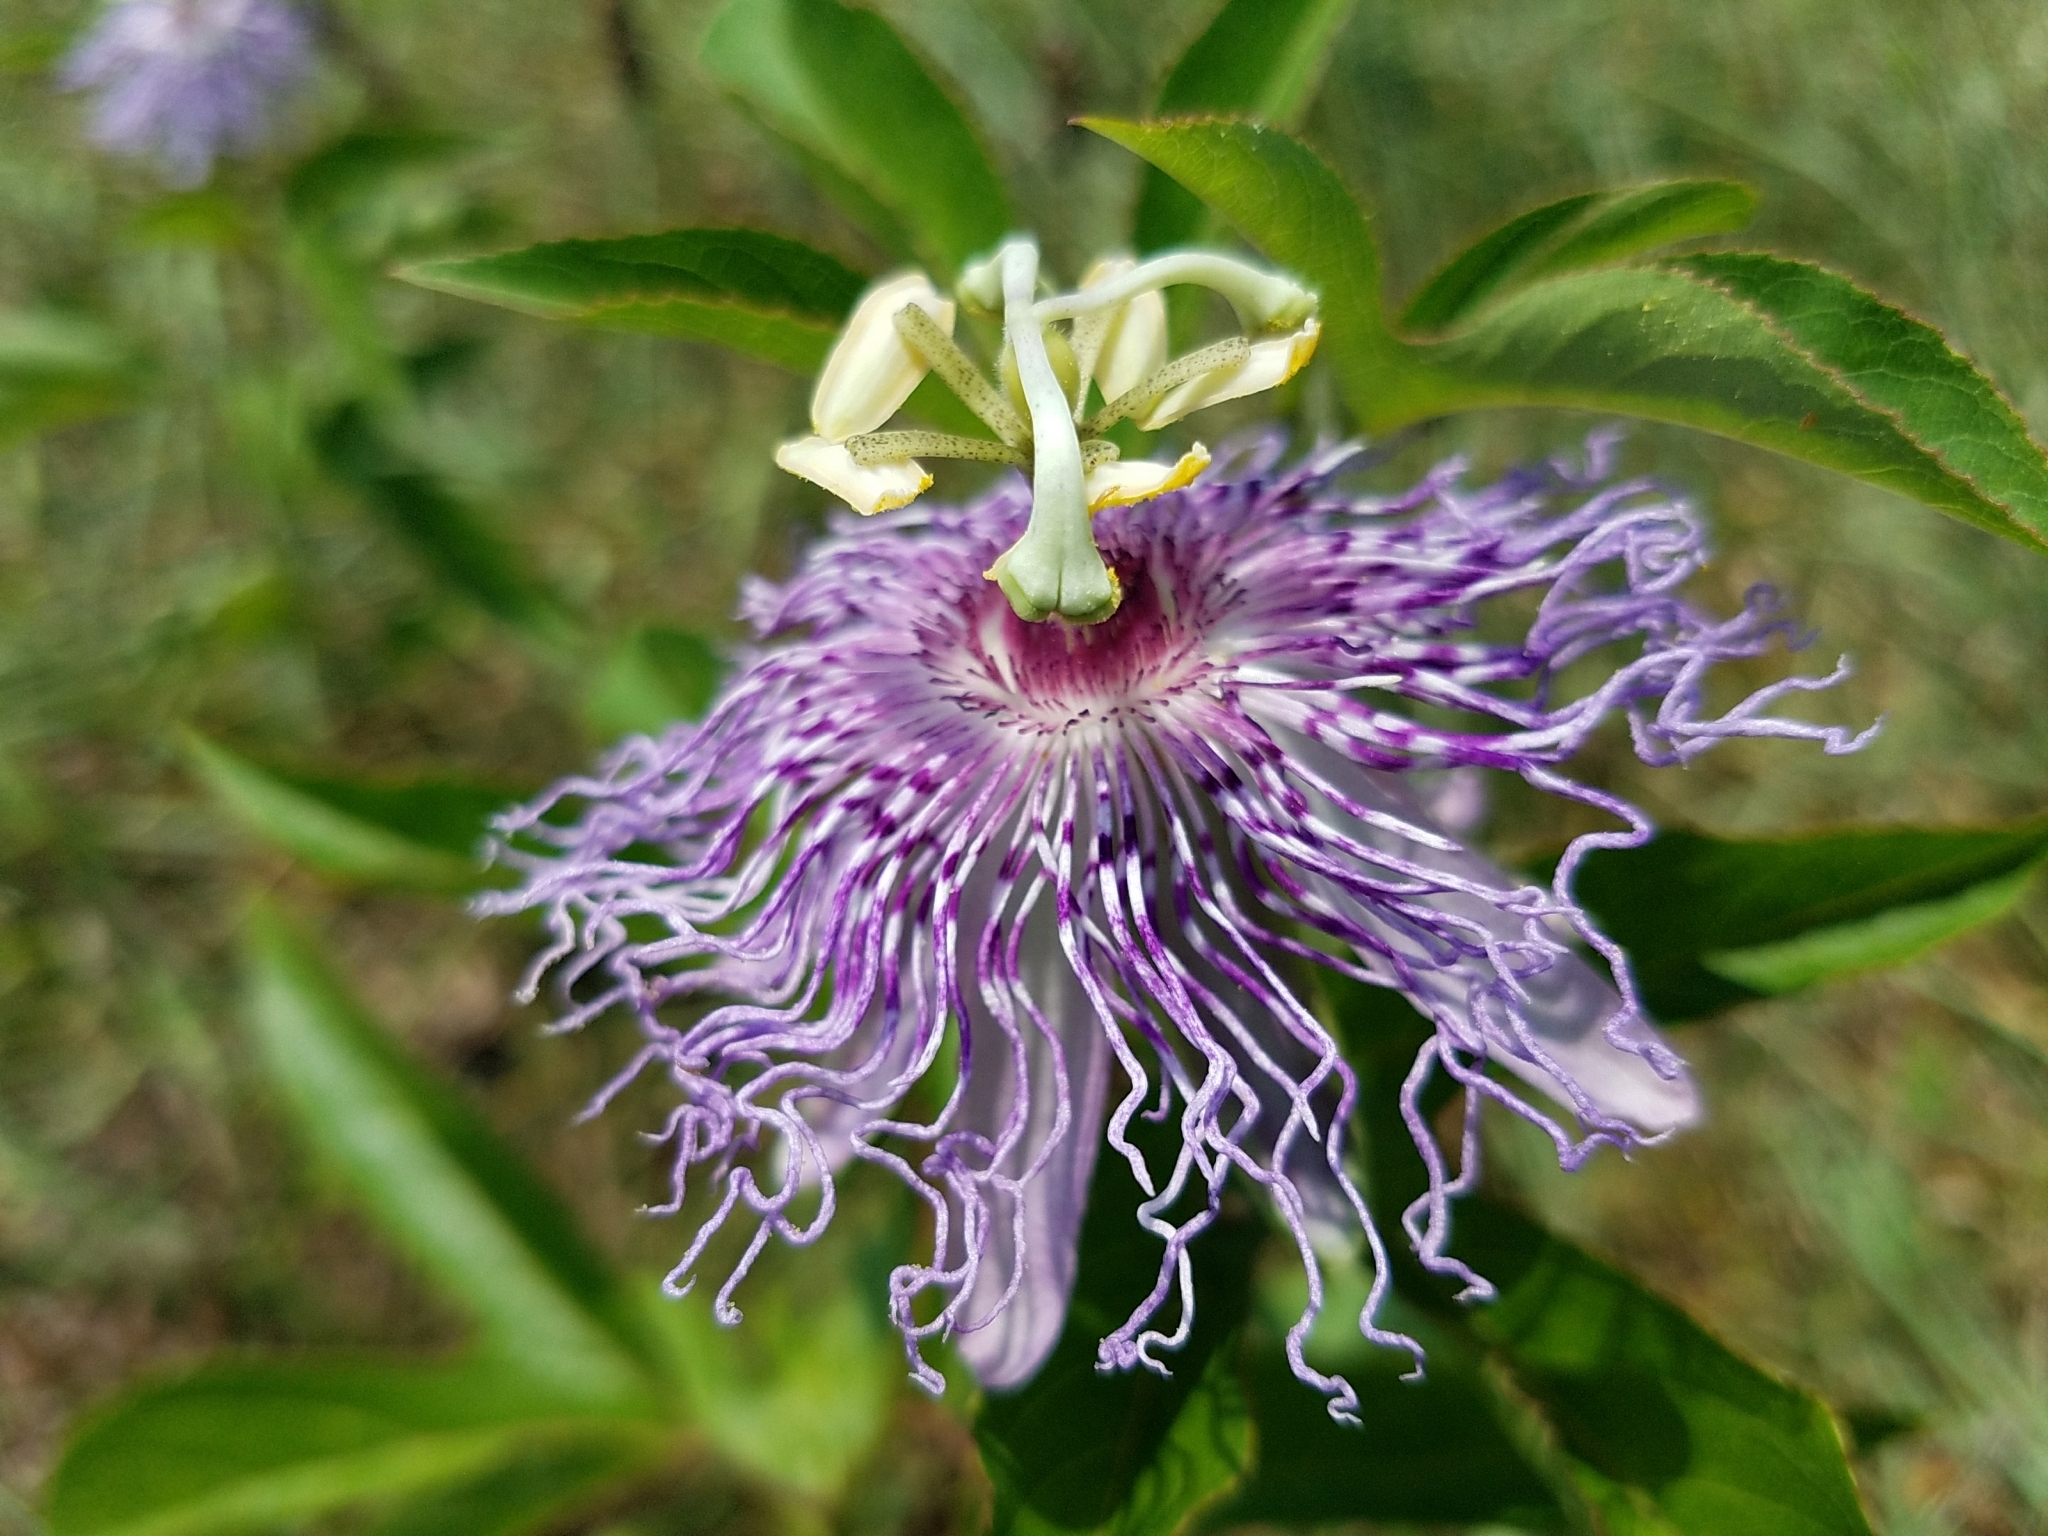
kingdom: Plantae
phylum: Tracheophyta
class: Magnoliopsida
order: Malpighiales
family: Passifloraceae
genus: Passiflora
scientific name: Passiflora incarnata
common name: Apricot-vine
